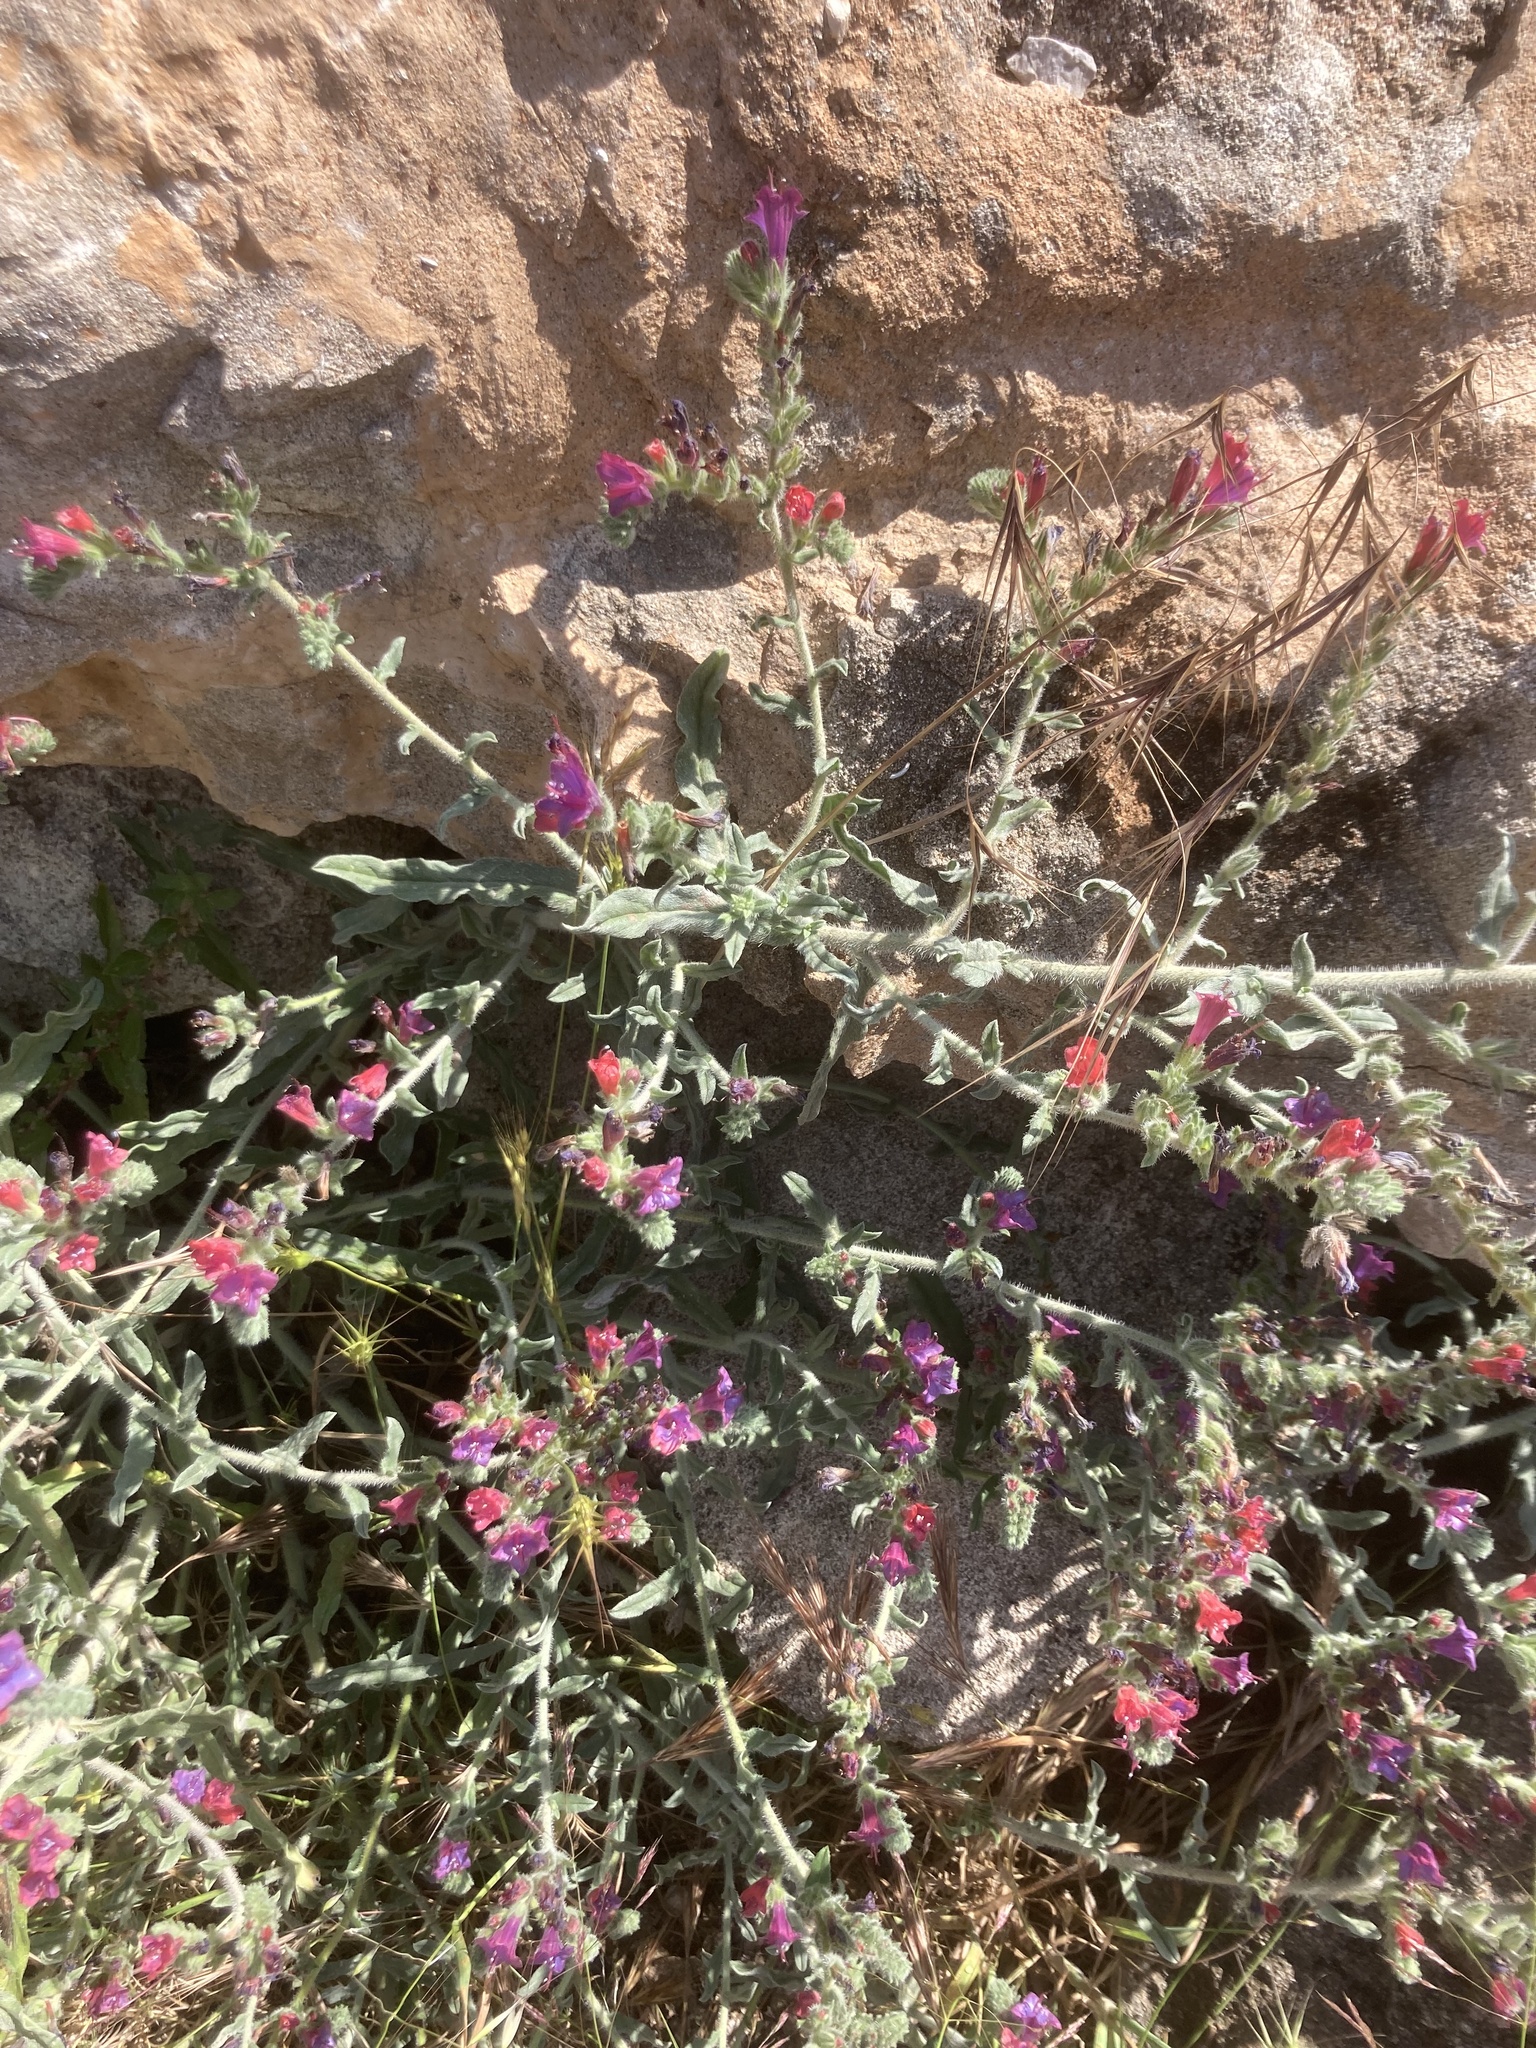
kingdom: Plantae
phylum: Tracheophyta
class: Magnoliopsida
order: Boraginales
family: Boraginaceae
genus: Echium
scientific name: Echium angustifolium
